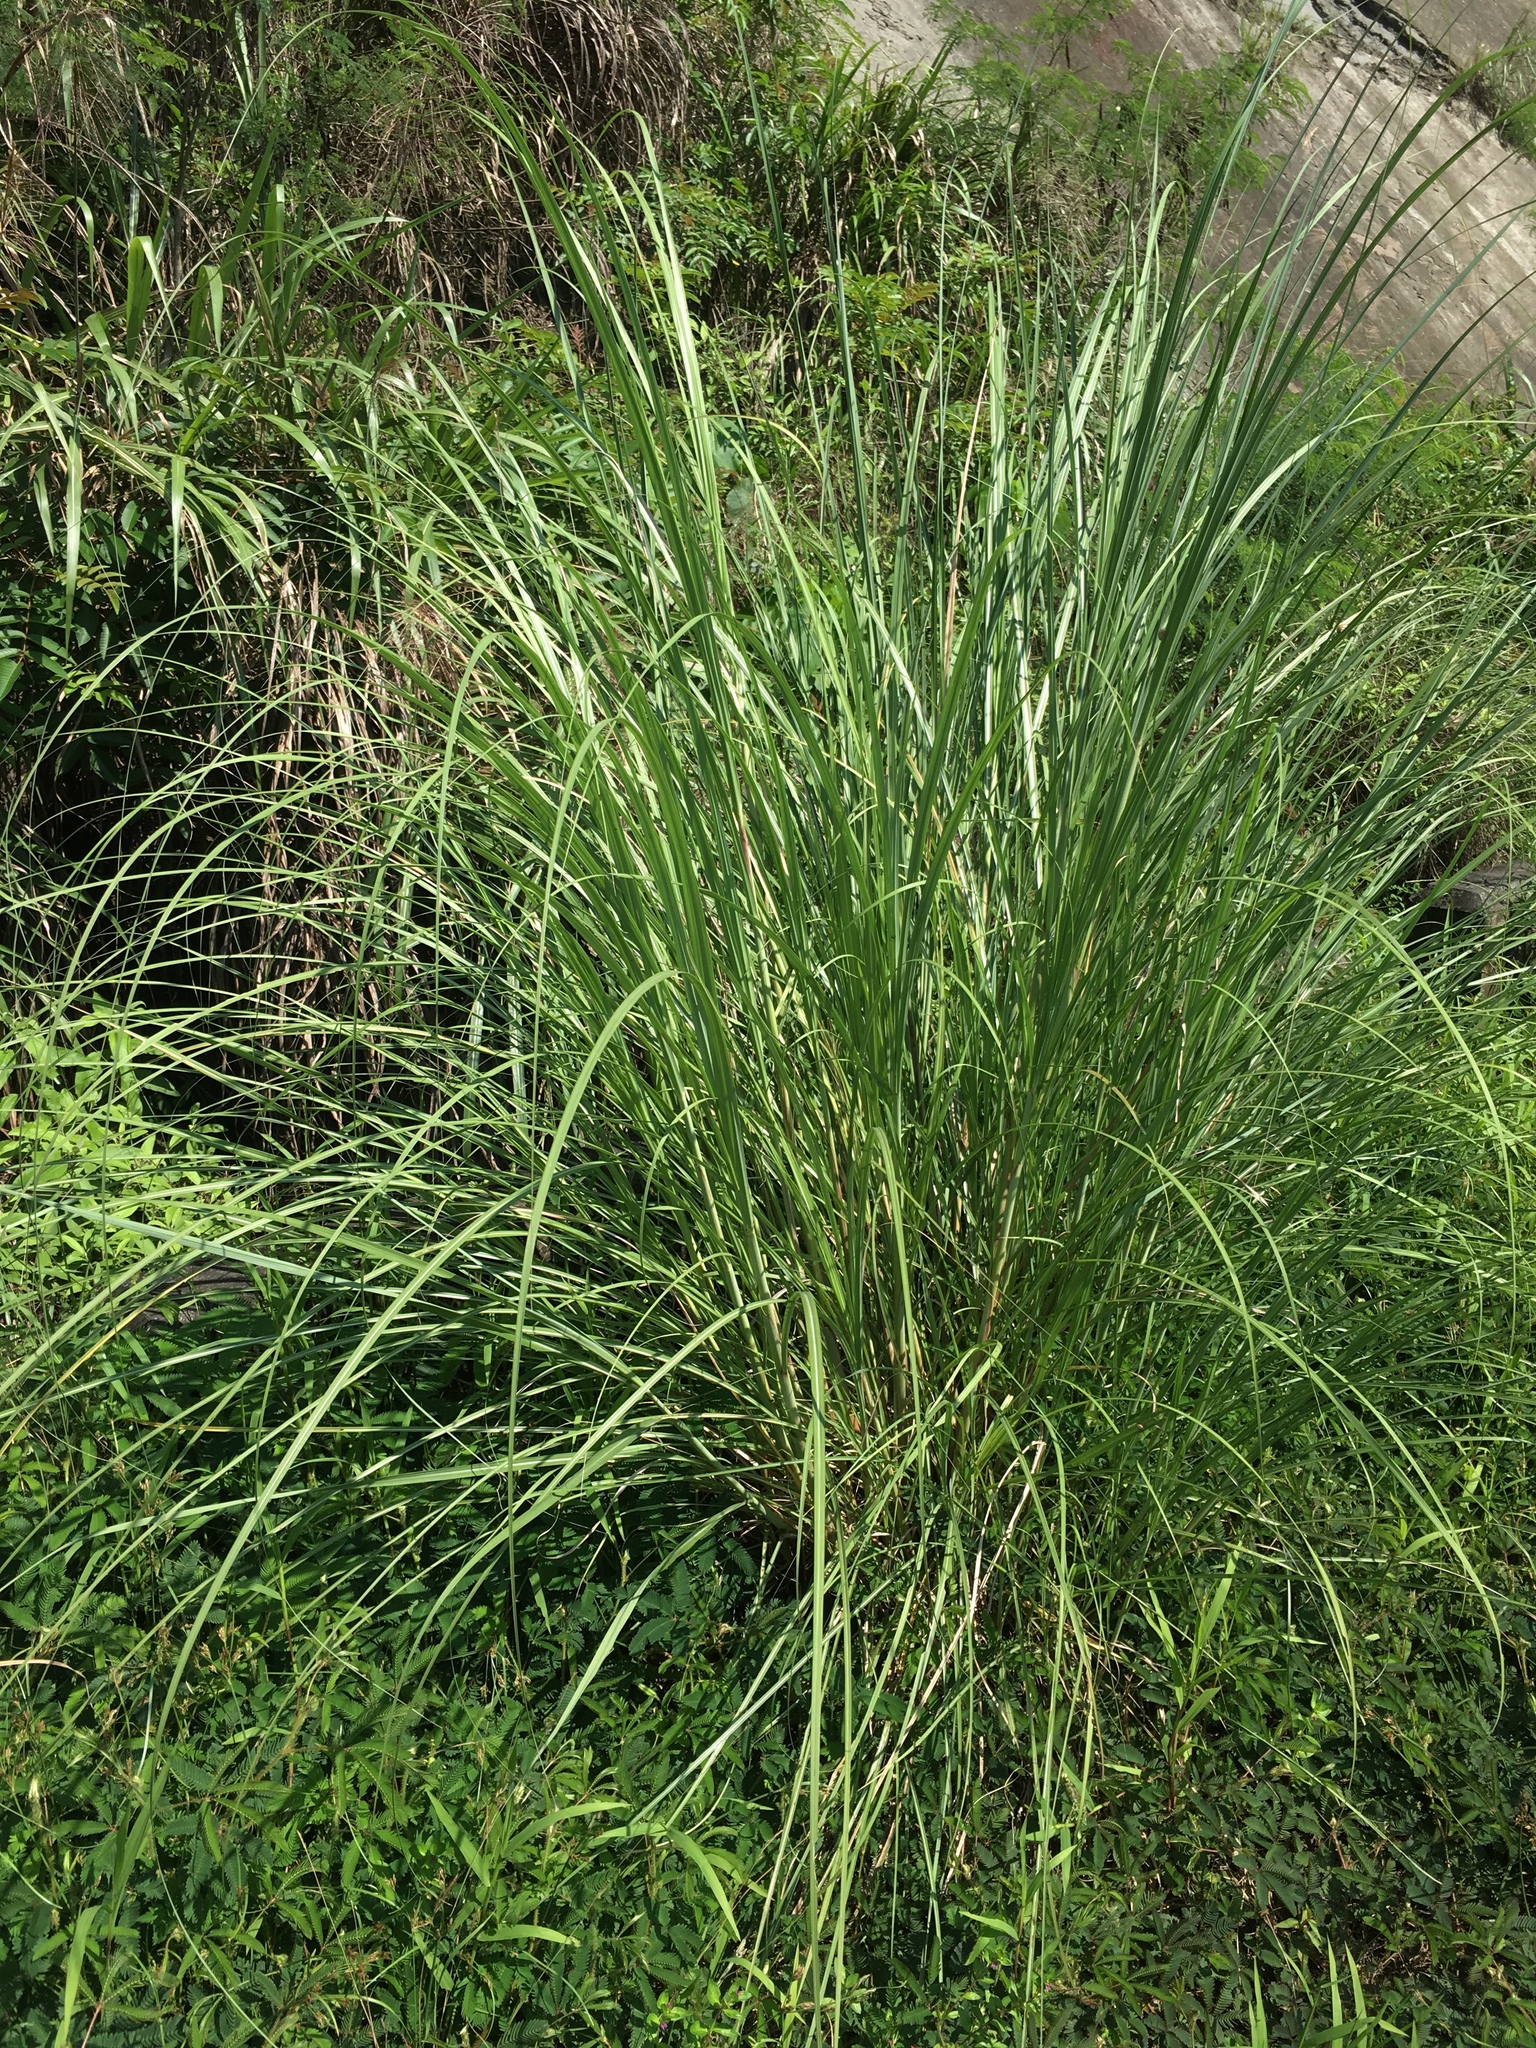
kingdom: Plantae
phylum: Tracheophyta
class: Liliopsida
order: Poales
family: Poaceae
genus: Saccharum
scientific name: Saccharum spontaneum
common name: Wild sugarcane
